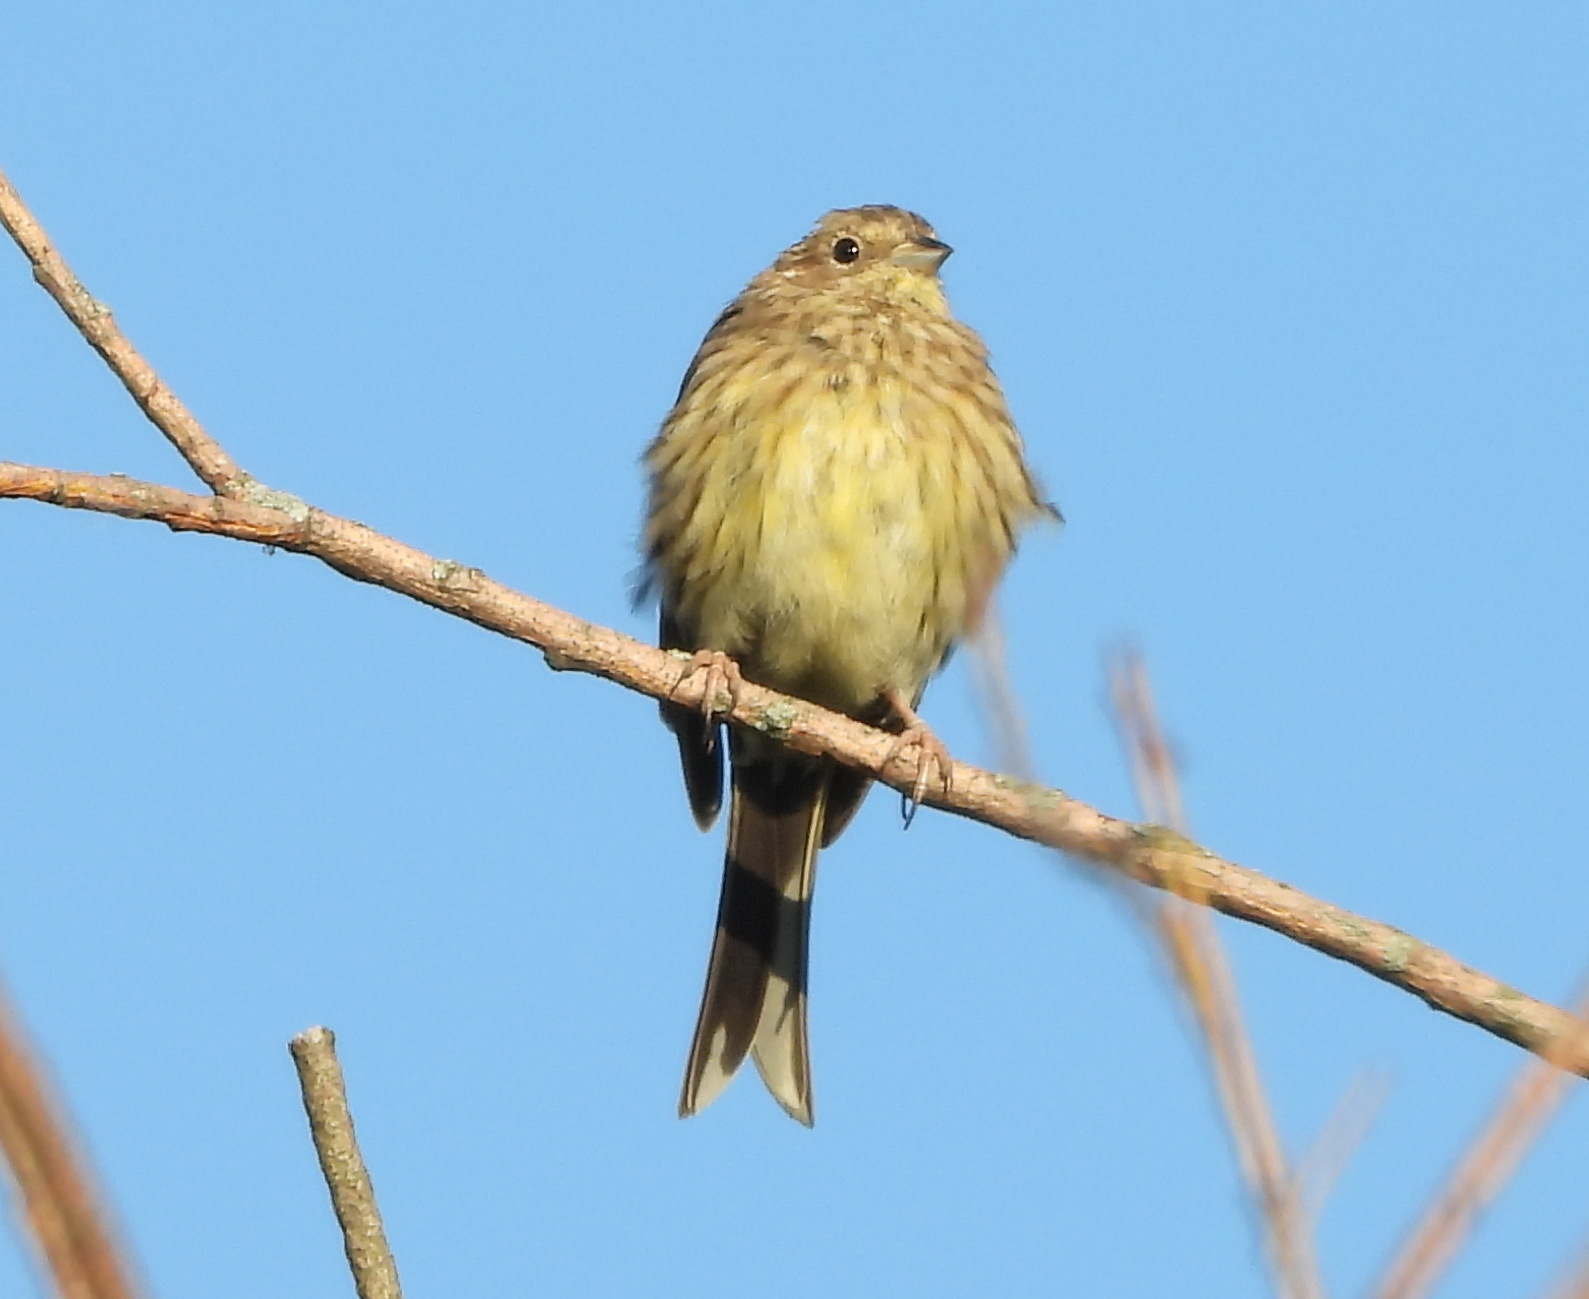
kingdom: Animalia
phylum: Chordata
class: Aves
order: Passeriformes
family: Emberizidae
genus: Emberiza
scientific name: Emberiza citrinella
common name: Yellowhammer
